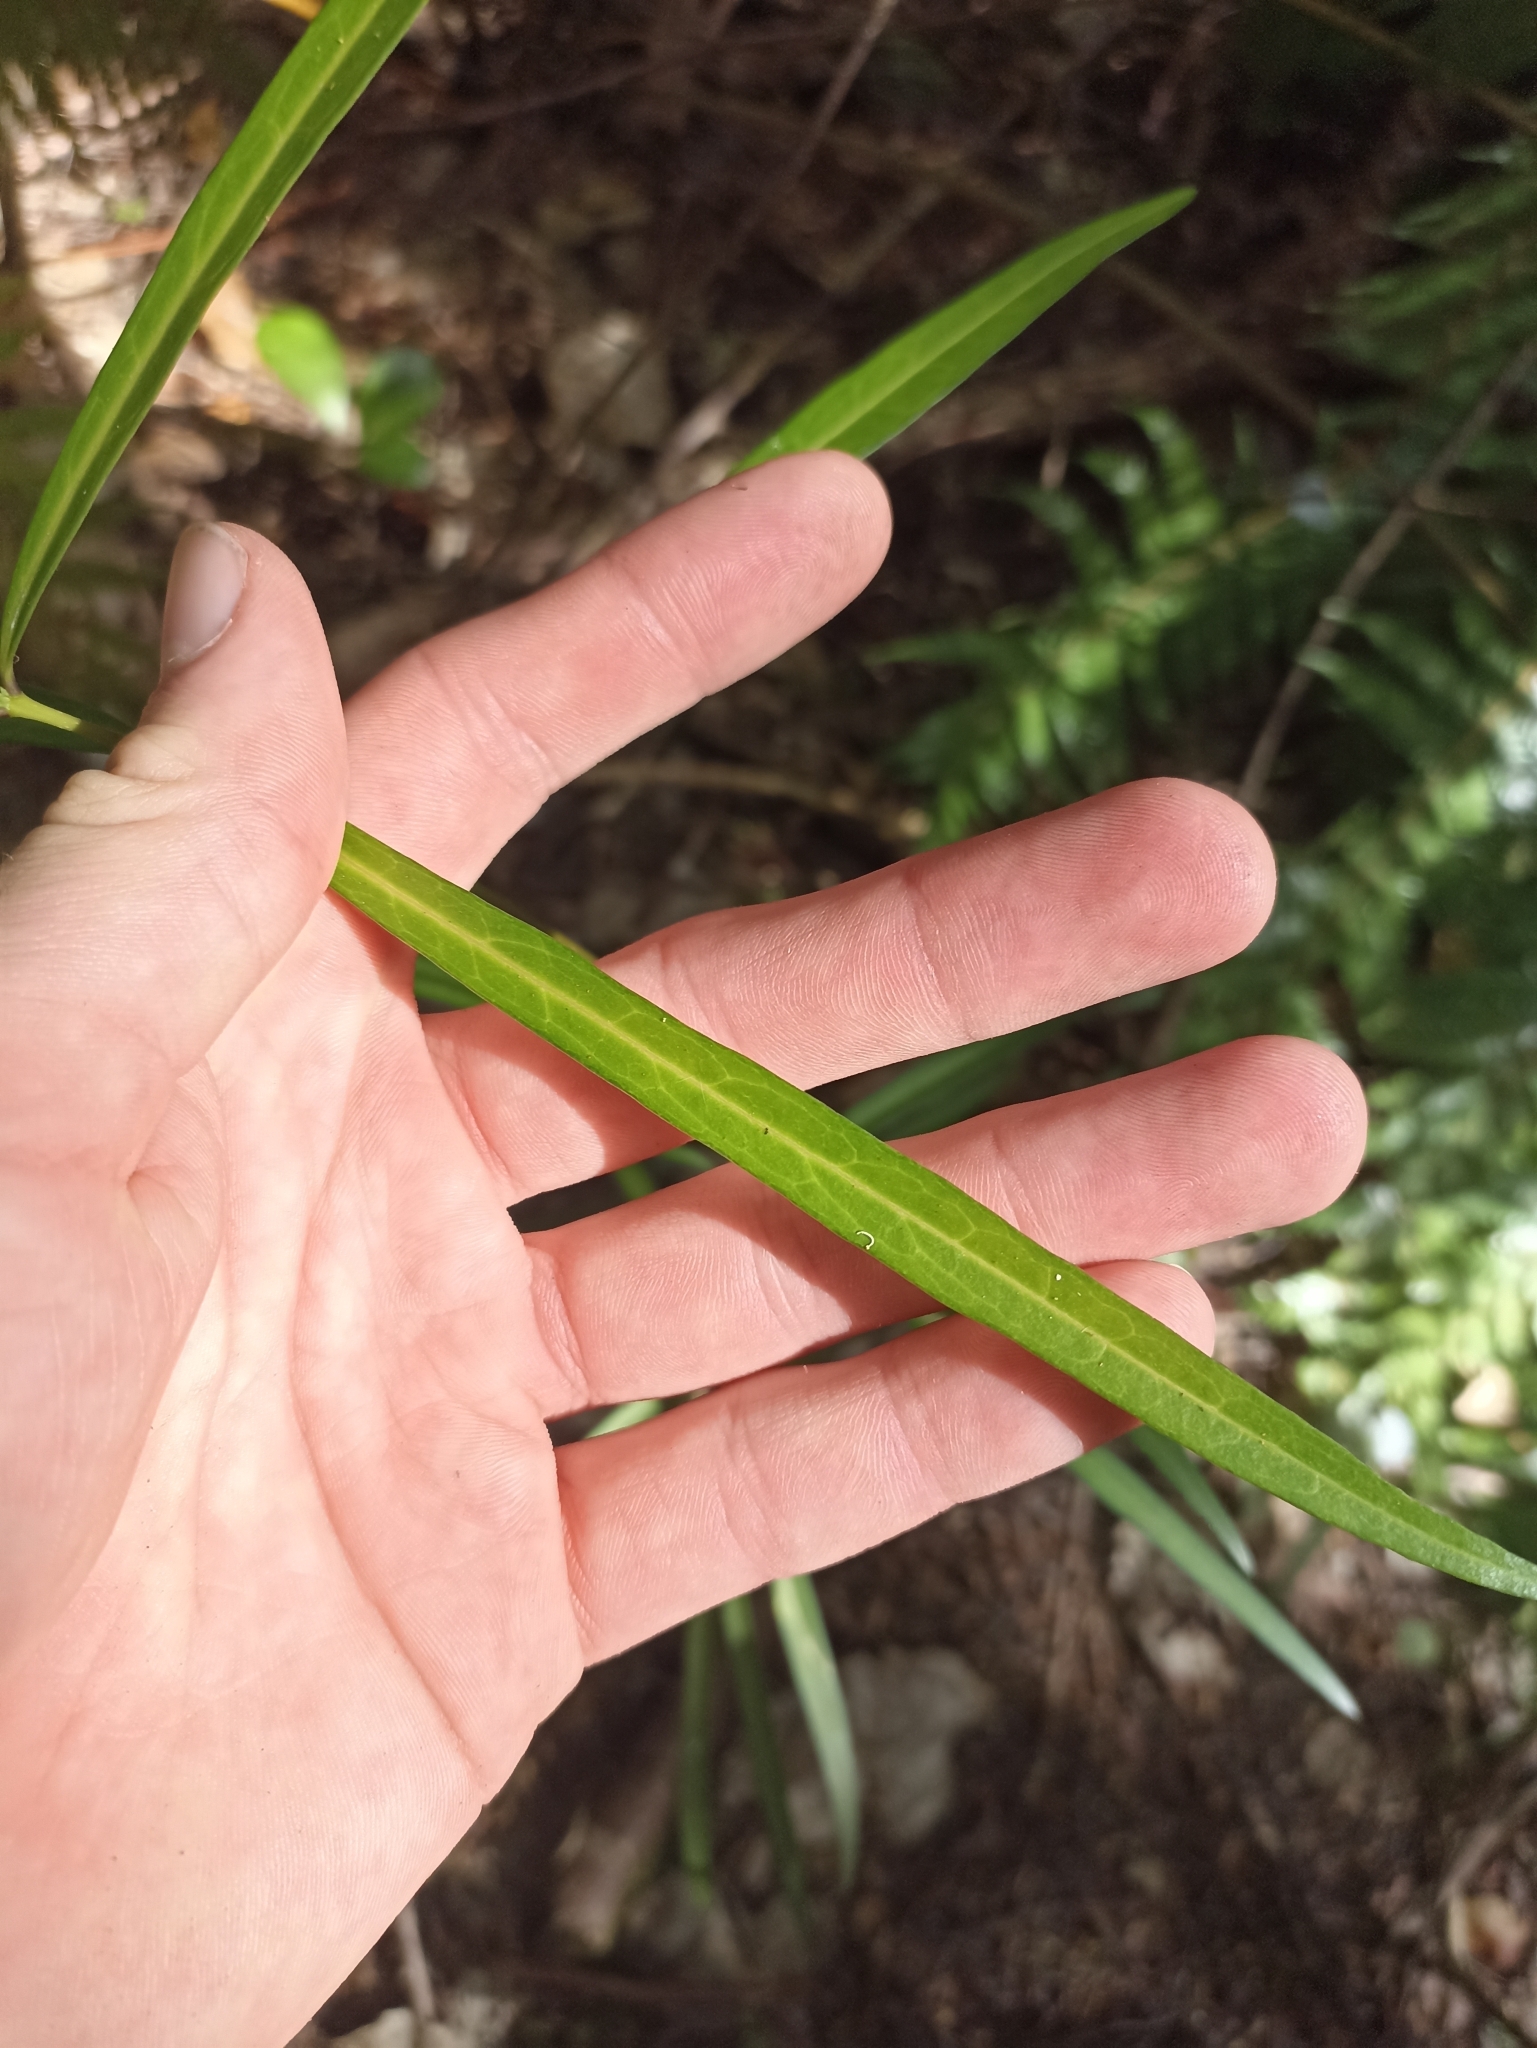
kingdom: Plantae
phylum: Tracheophyta
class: Magnoliopsida
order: Lamiales
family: Oleaceae
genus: Nestegis
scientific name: Nestegis lanceolata
